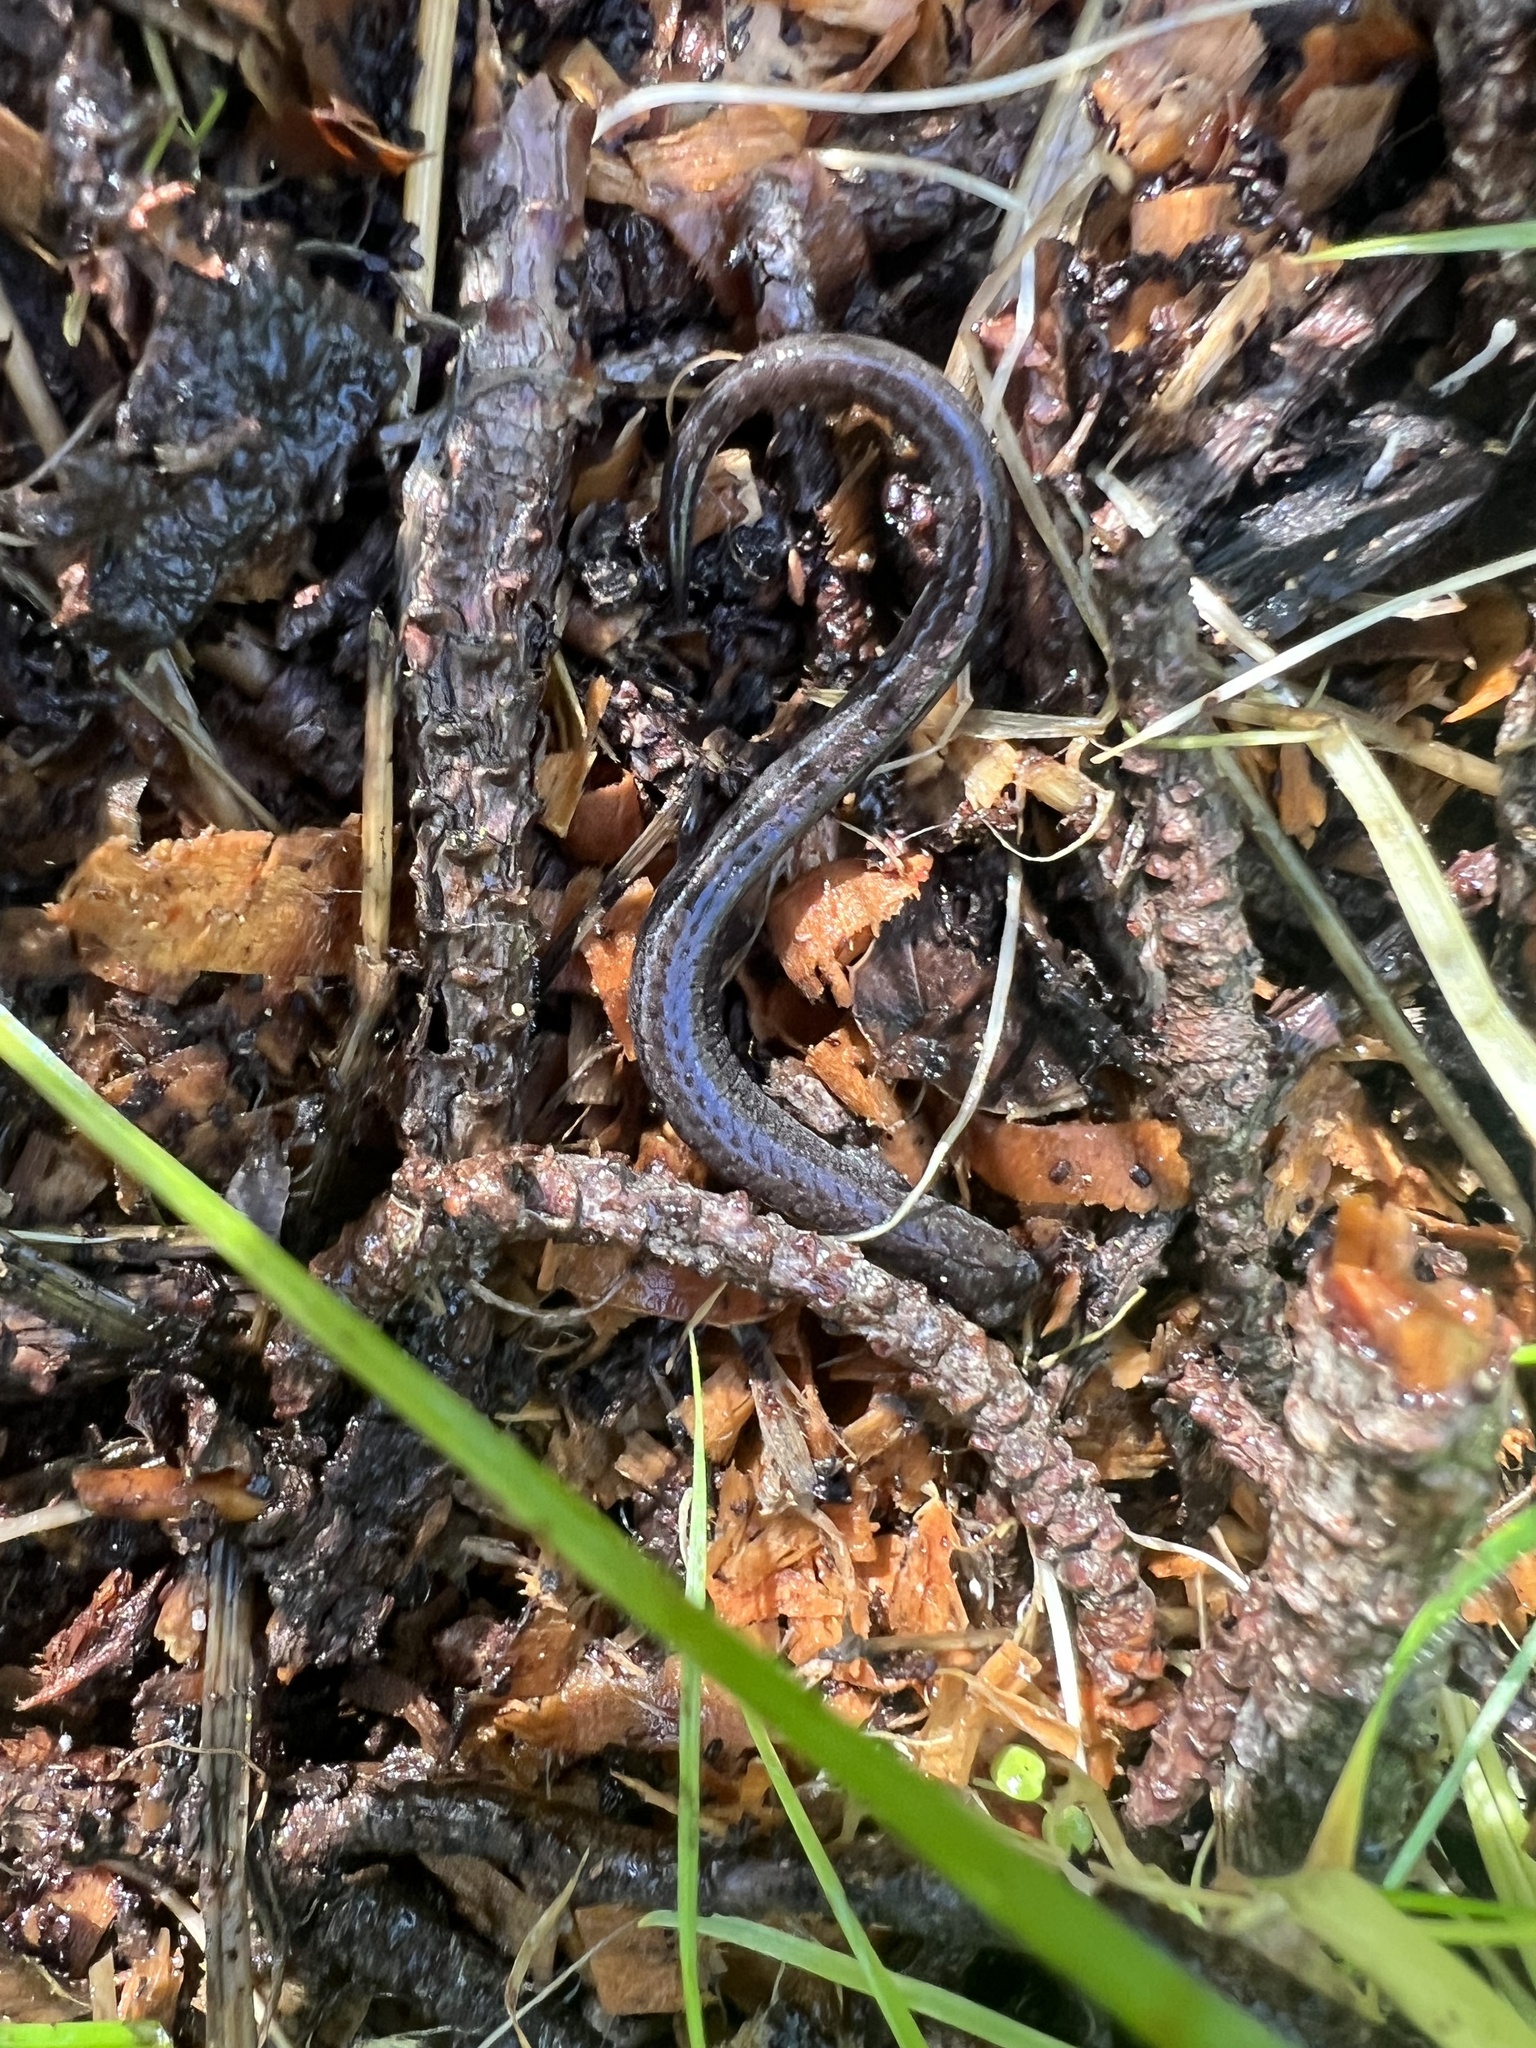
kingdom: Animalia
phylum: Chordata
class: Amphibia
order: Caudata
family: Plethodontidae
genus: Batrachoseps
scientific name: Batrachoseps luciae
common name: Santa lucia mountains slender salamander
